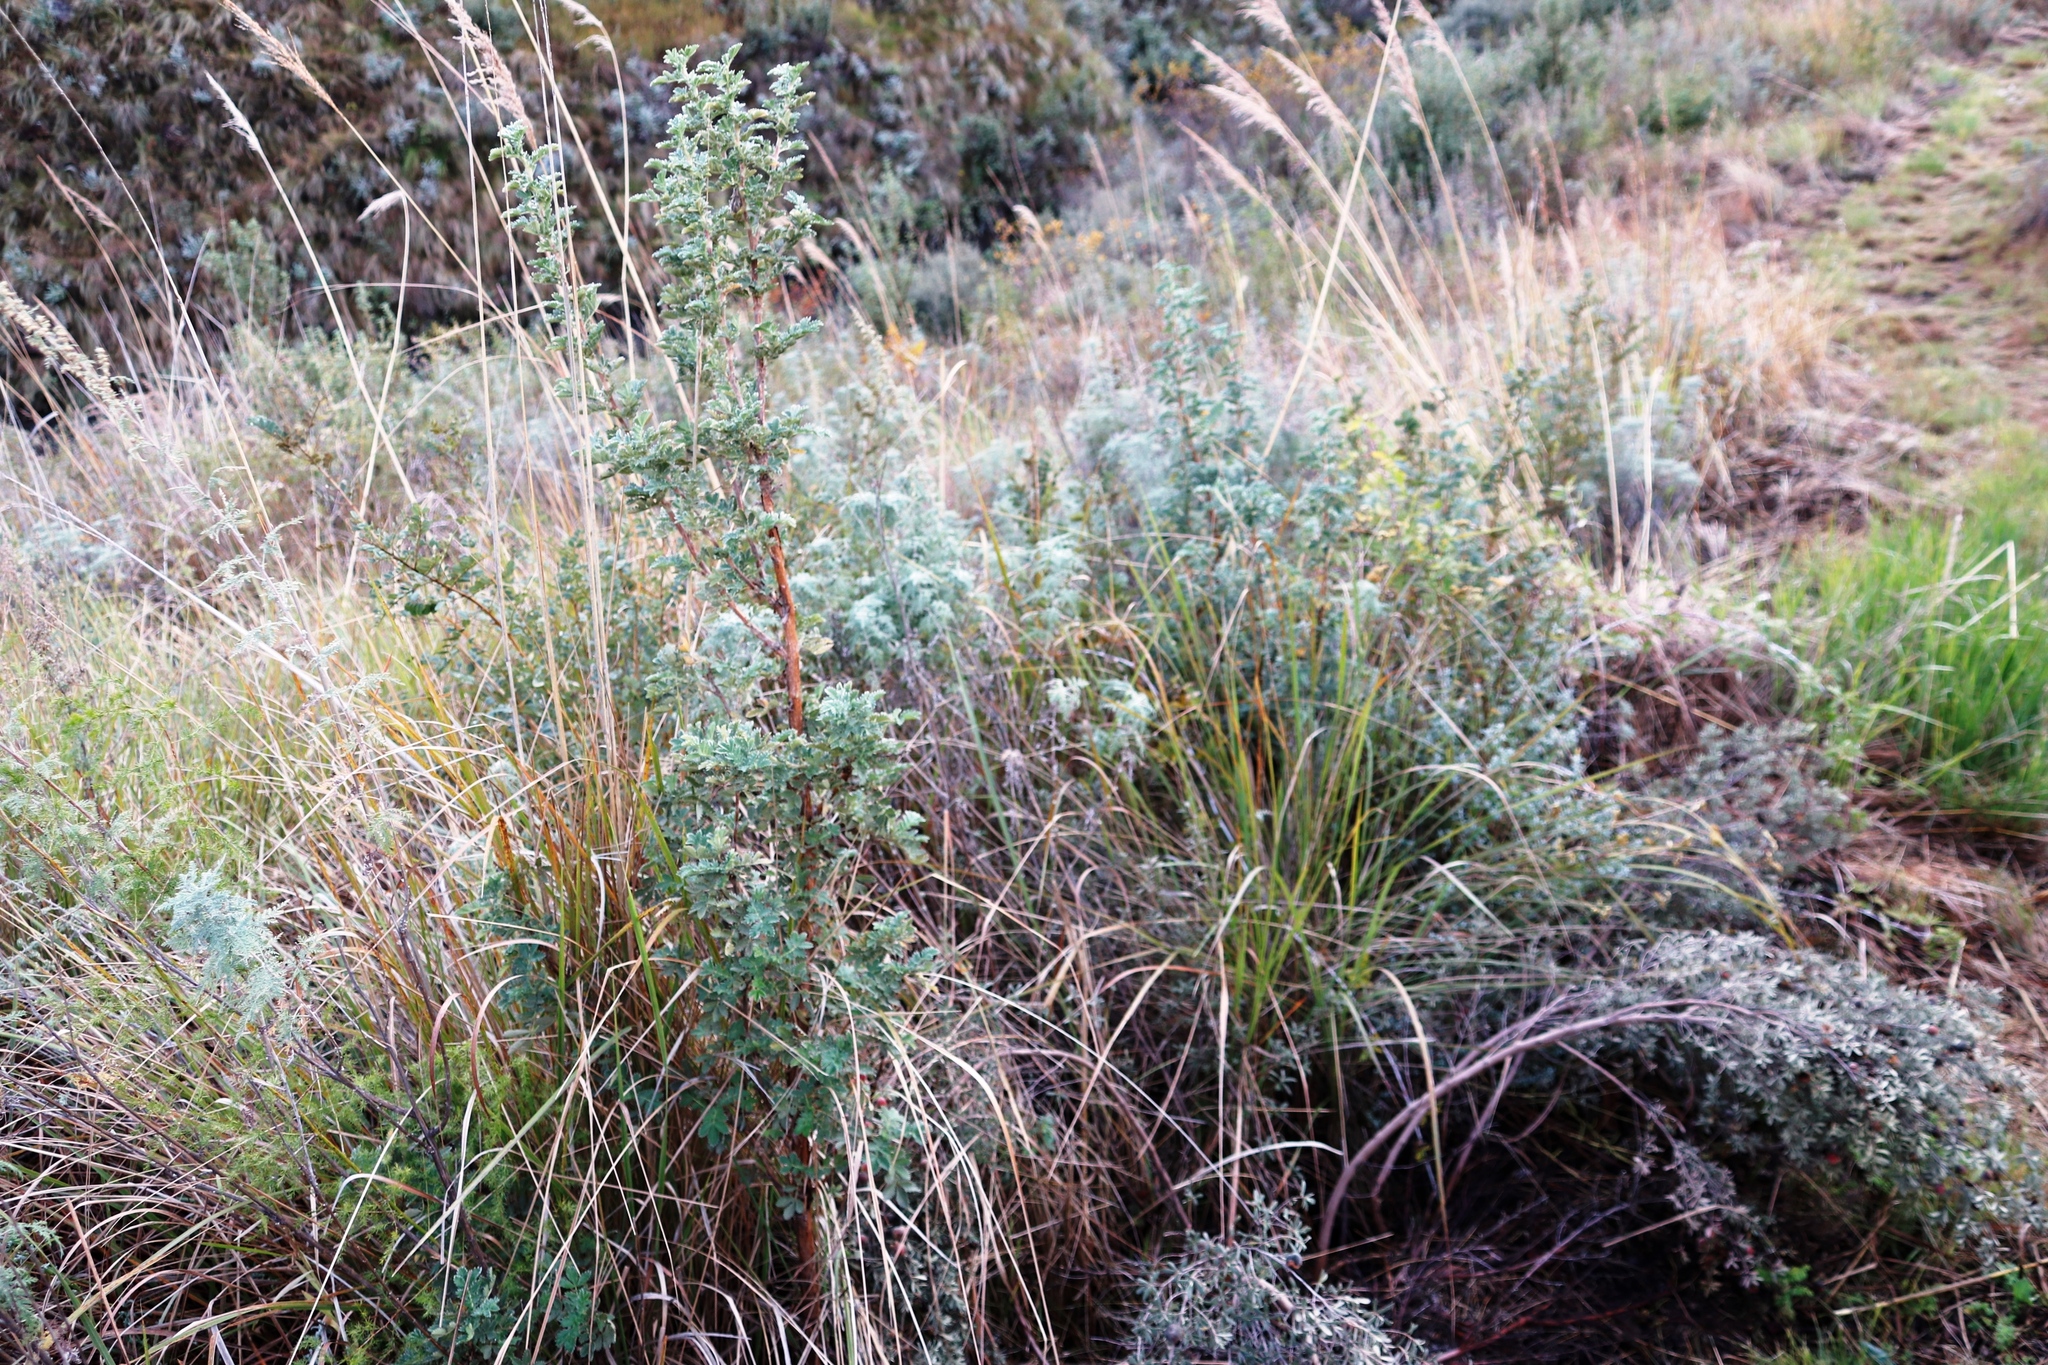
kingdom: Plantae
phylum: Tracheophyta
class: Magnoliopsida
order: Rosales
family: Rosaceae
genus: Leucosidea
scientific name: Leucosidea sericea
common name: Oldwood
